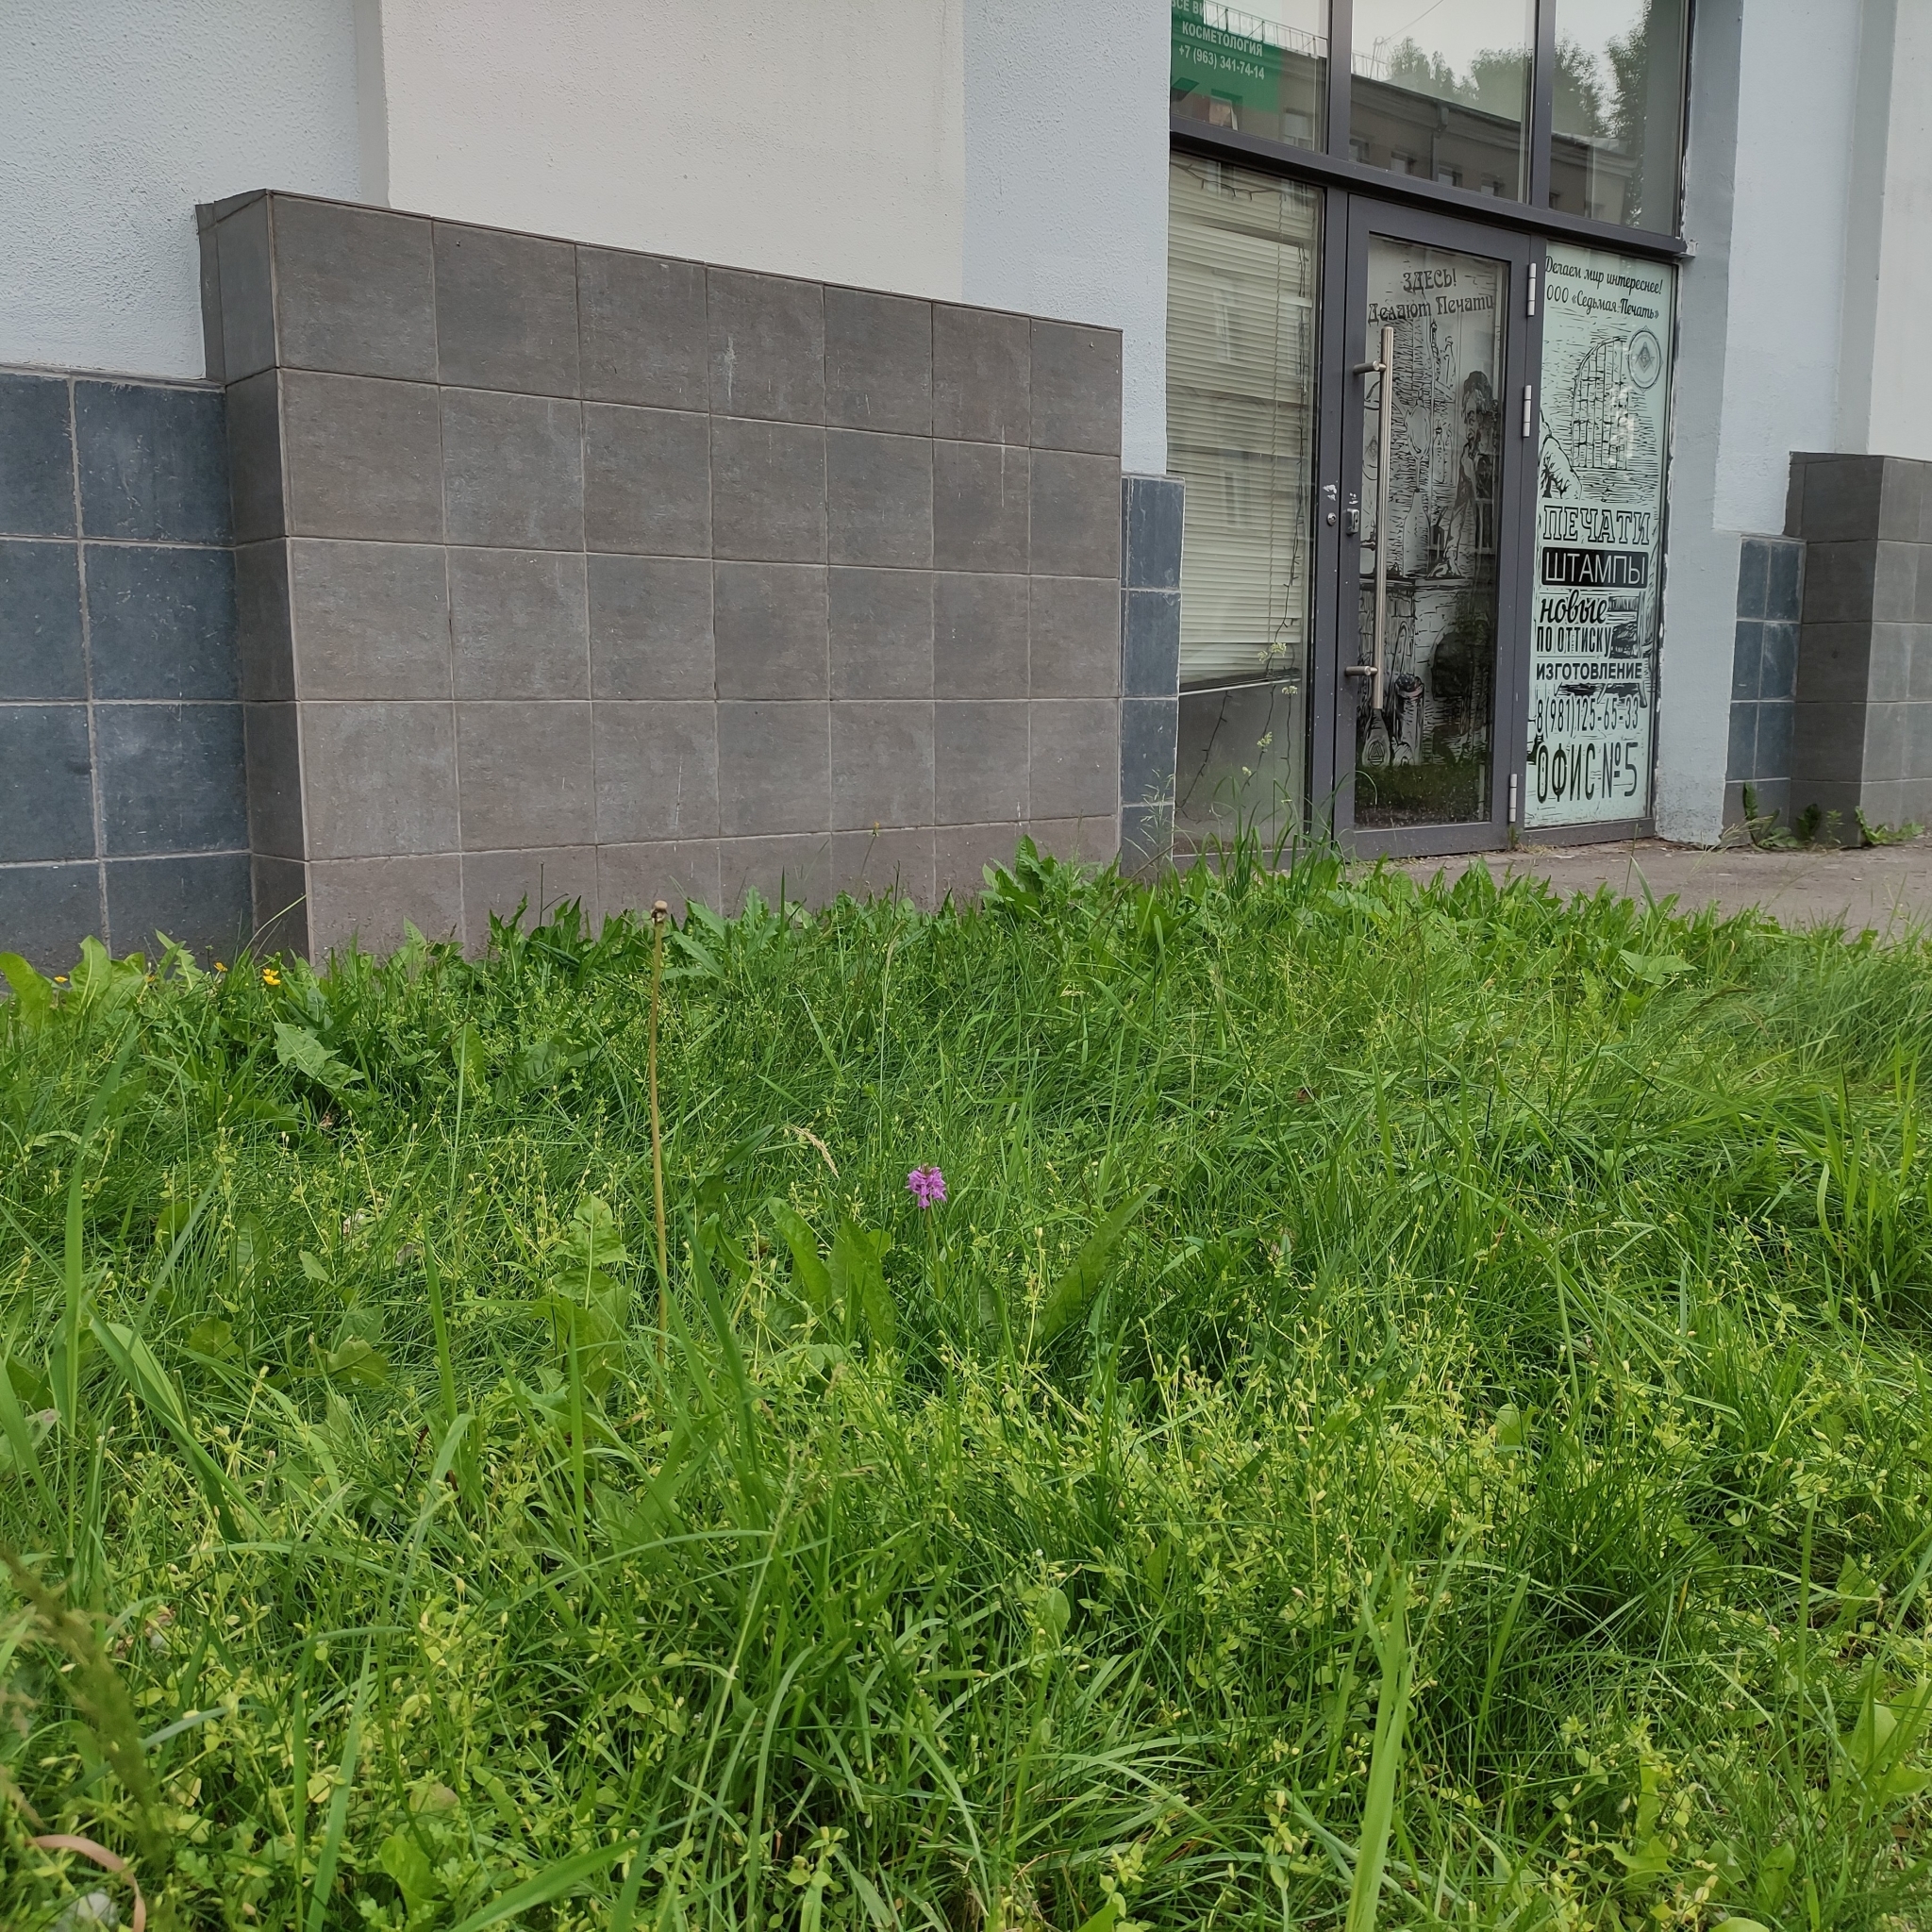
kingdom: Plantae
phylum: Tracheophyta
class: Liliopsida
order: Asparagales
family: Orchidaceae
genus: Dactylorhiza
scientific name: Dactylorhiza majalis
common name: Marsh orchid
